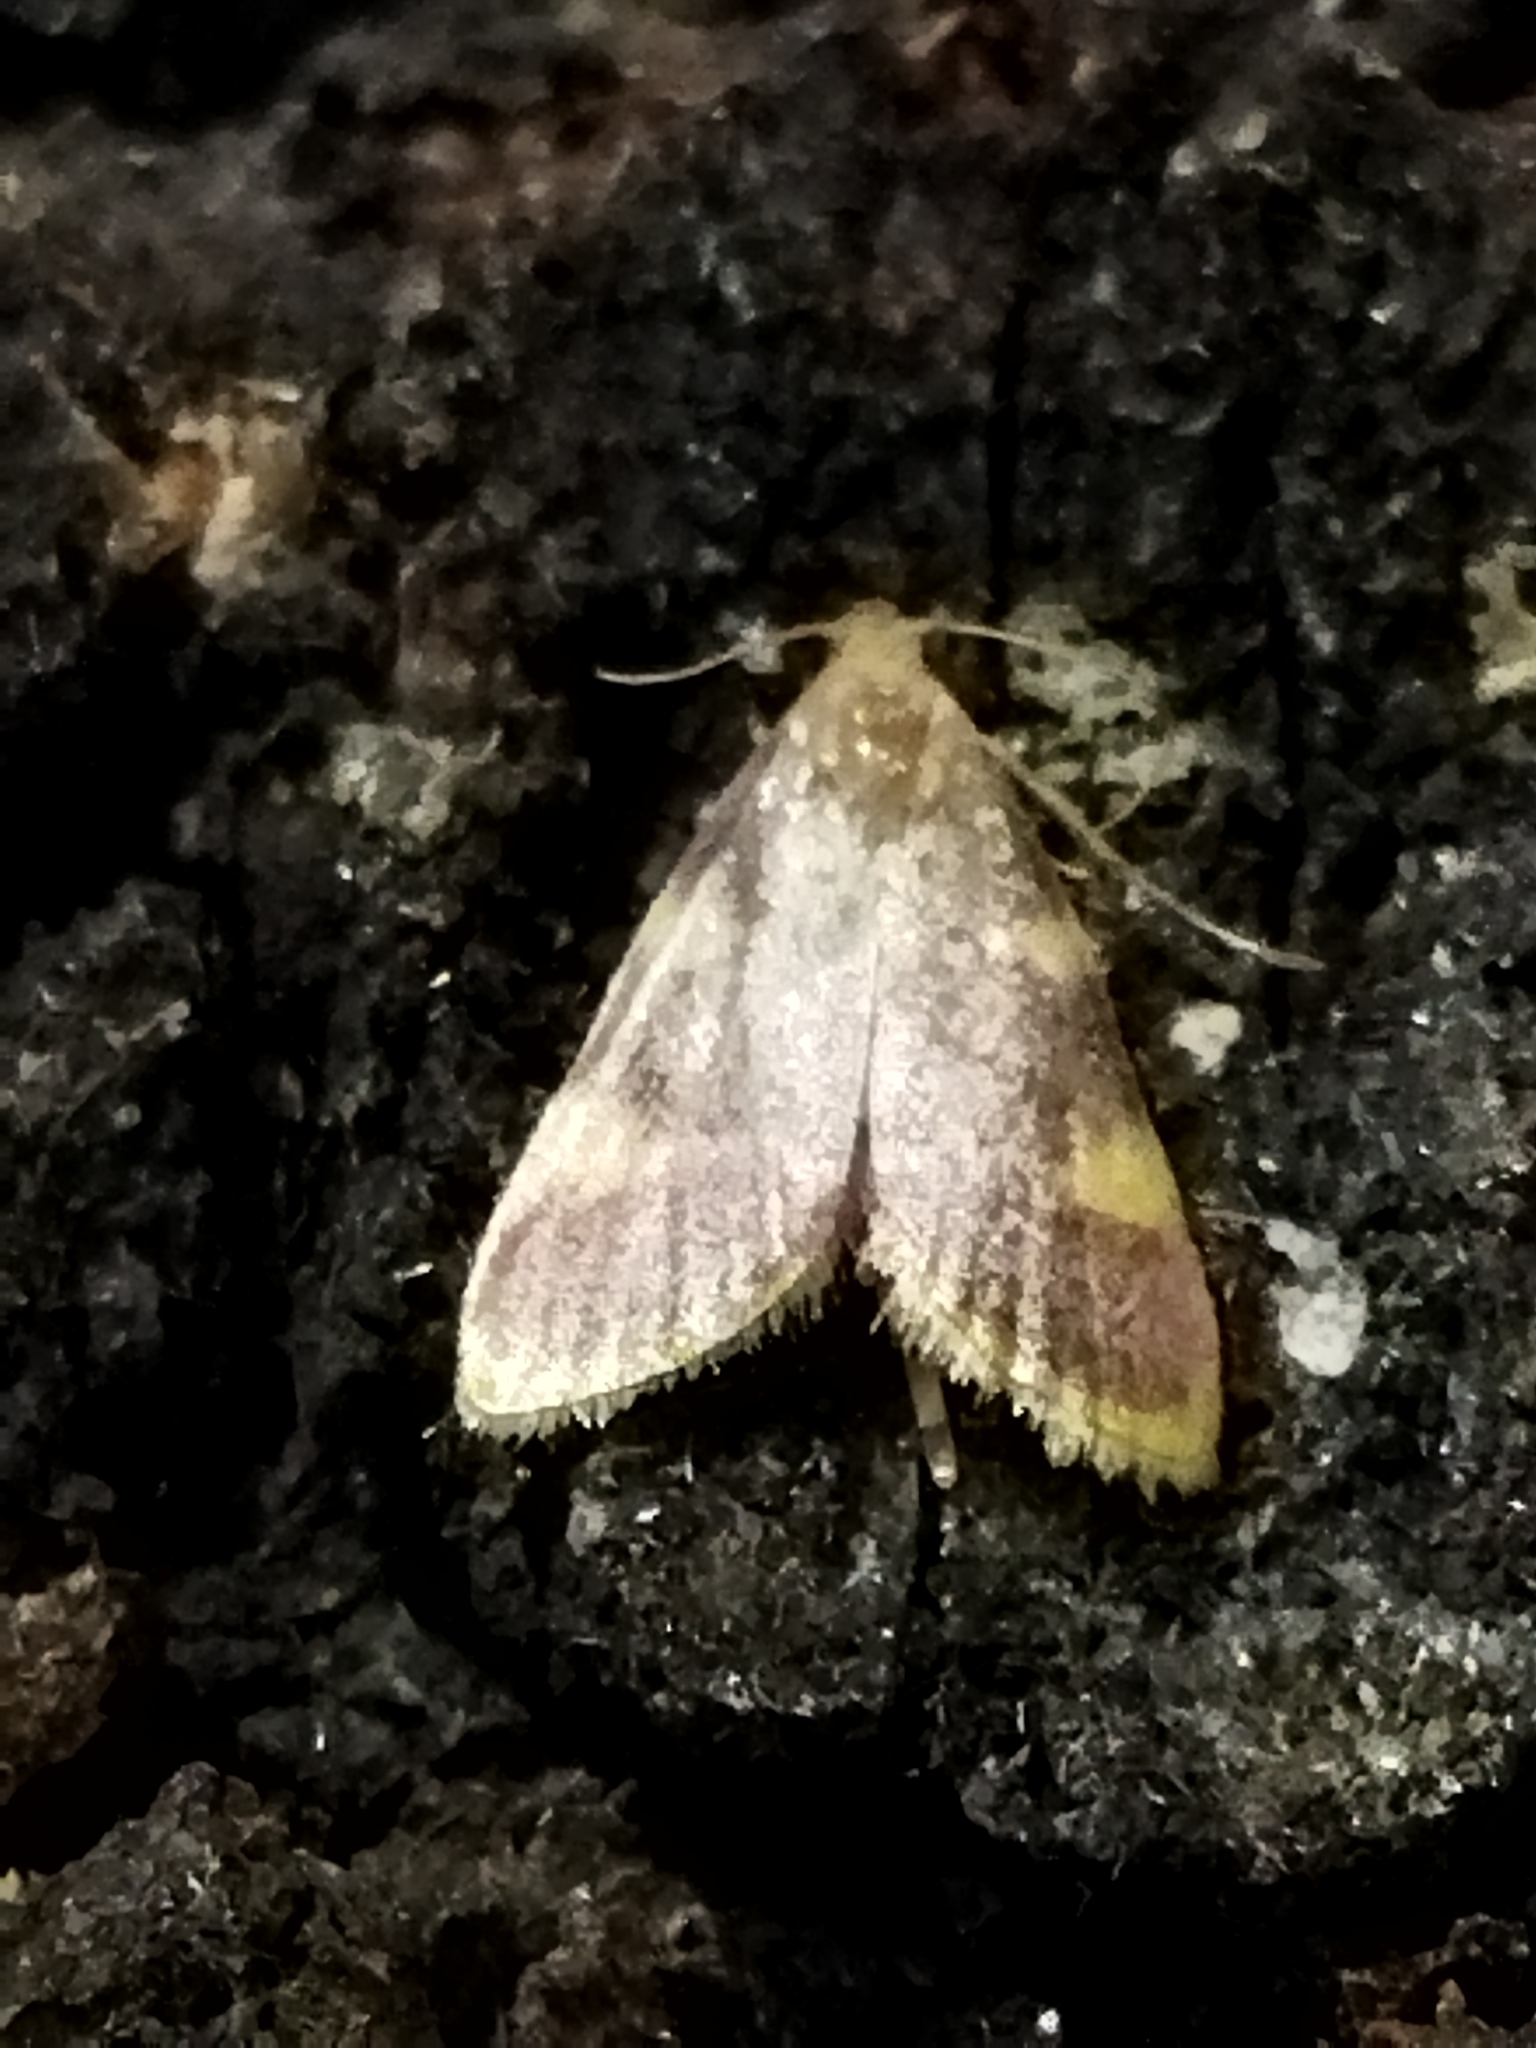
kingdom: Animalia
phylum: Arthropoda
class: Insecta
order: Lepidoptera
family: Pyralidae
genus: Hypsopygia
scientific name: Hypsopygia costalis
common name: Gold triangle
